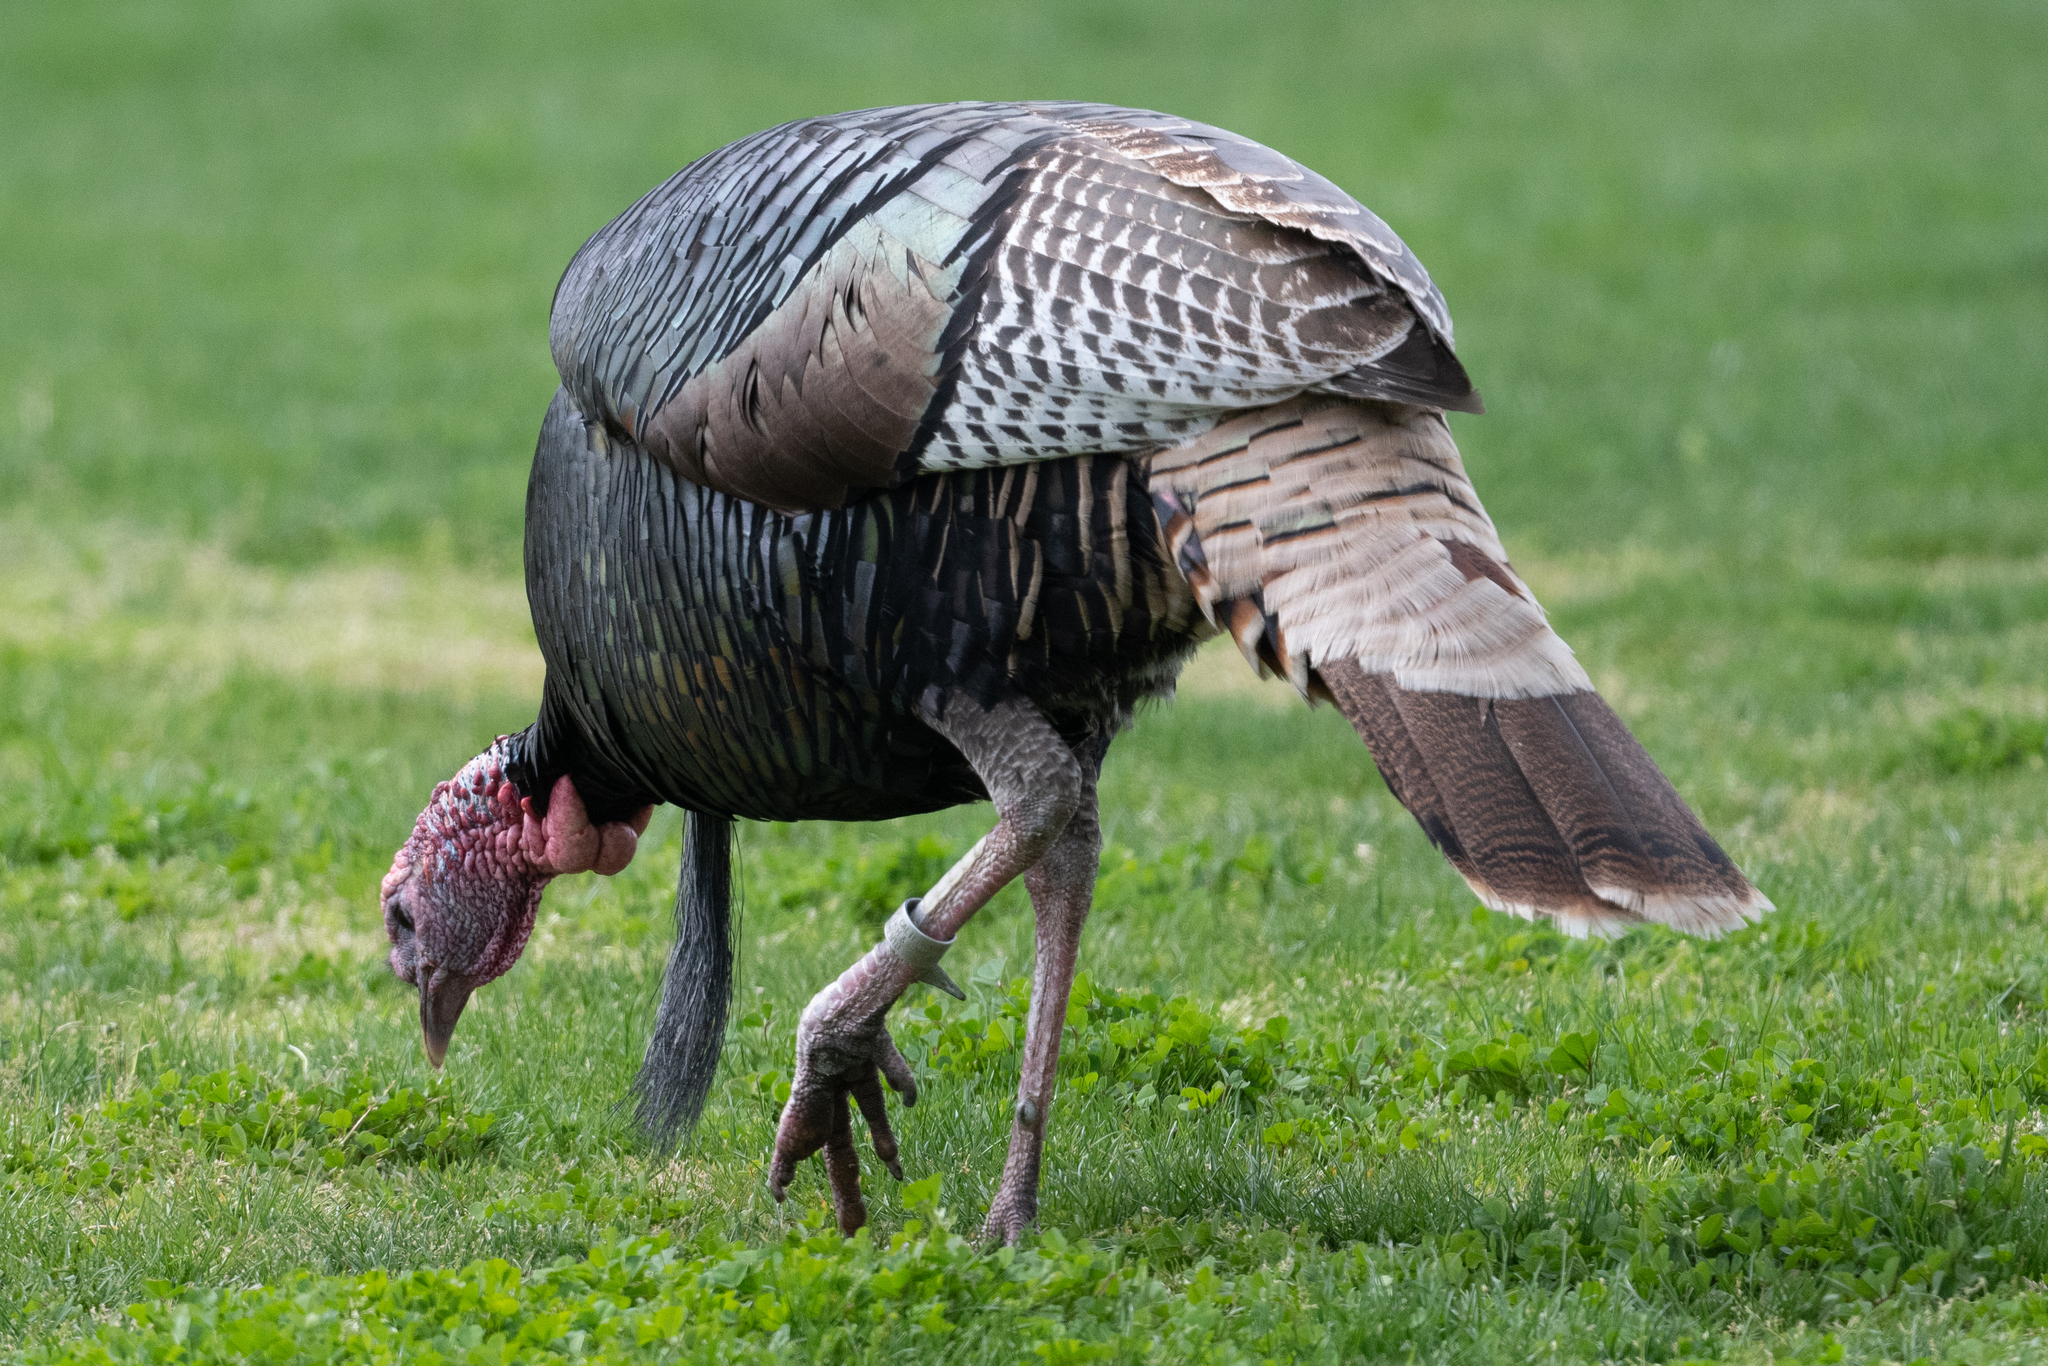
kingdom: Animalia
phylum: Chordata
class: Aves
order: Galliformes
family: Phasianidae
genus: Meleagris
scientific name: Meleagris gallopavo
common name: Wild turkey
